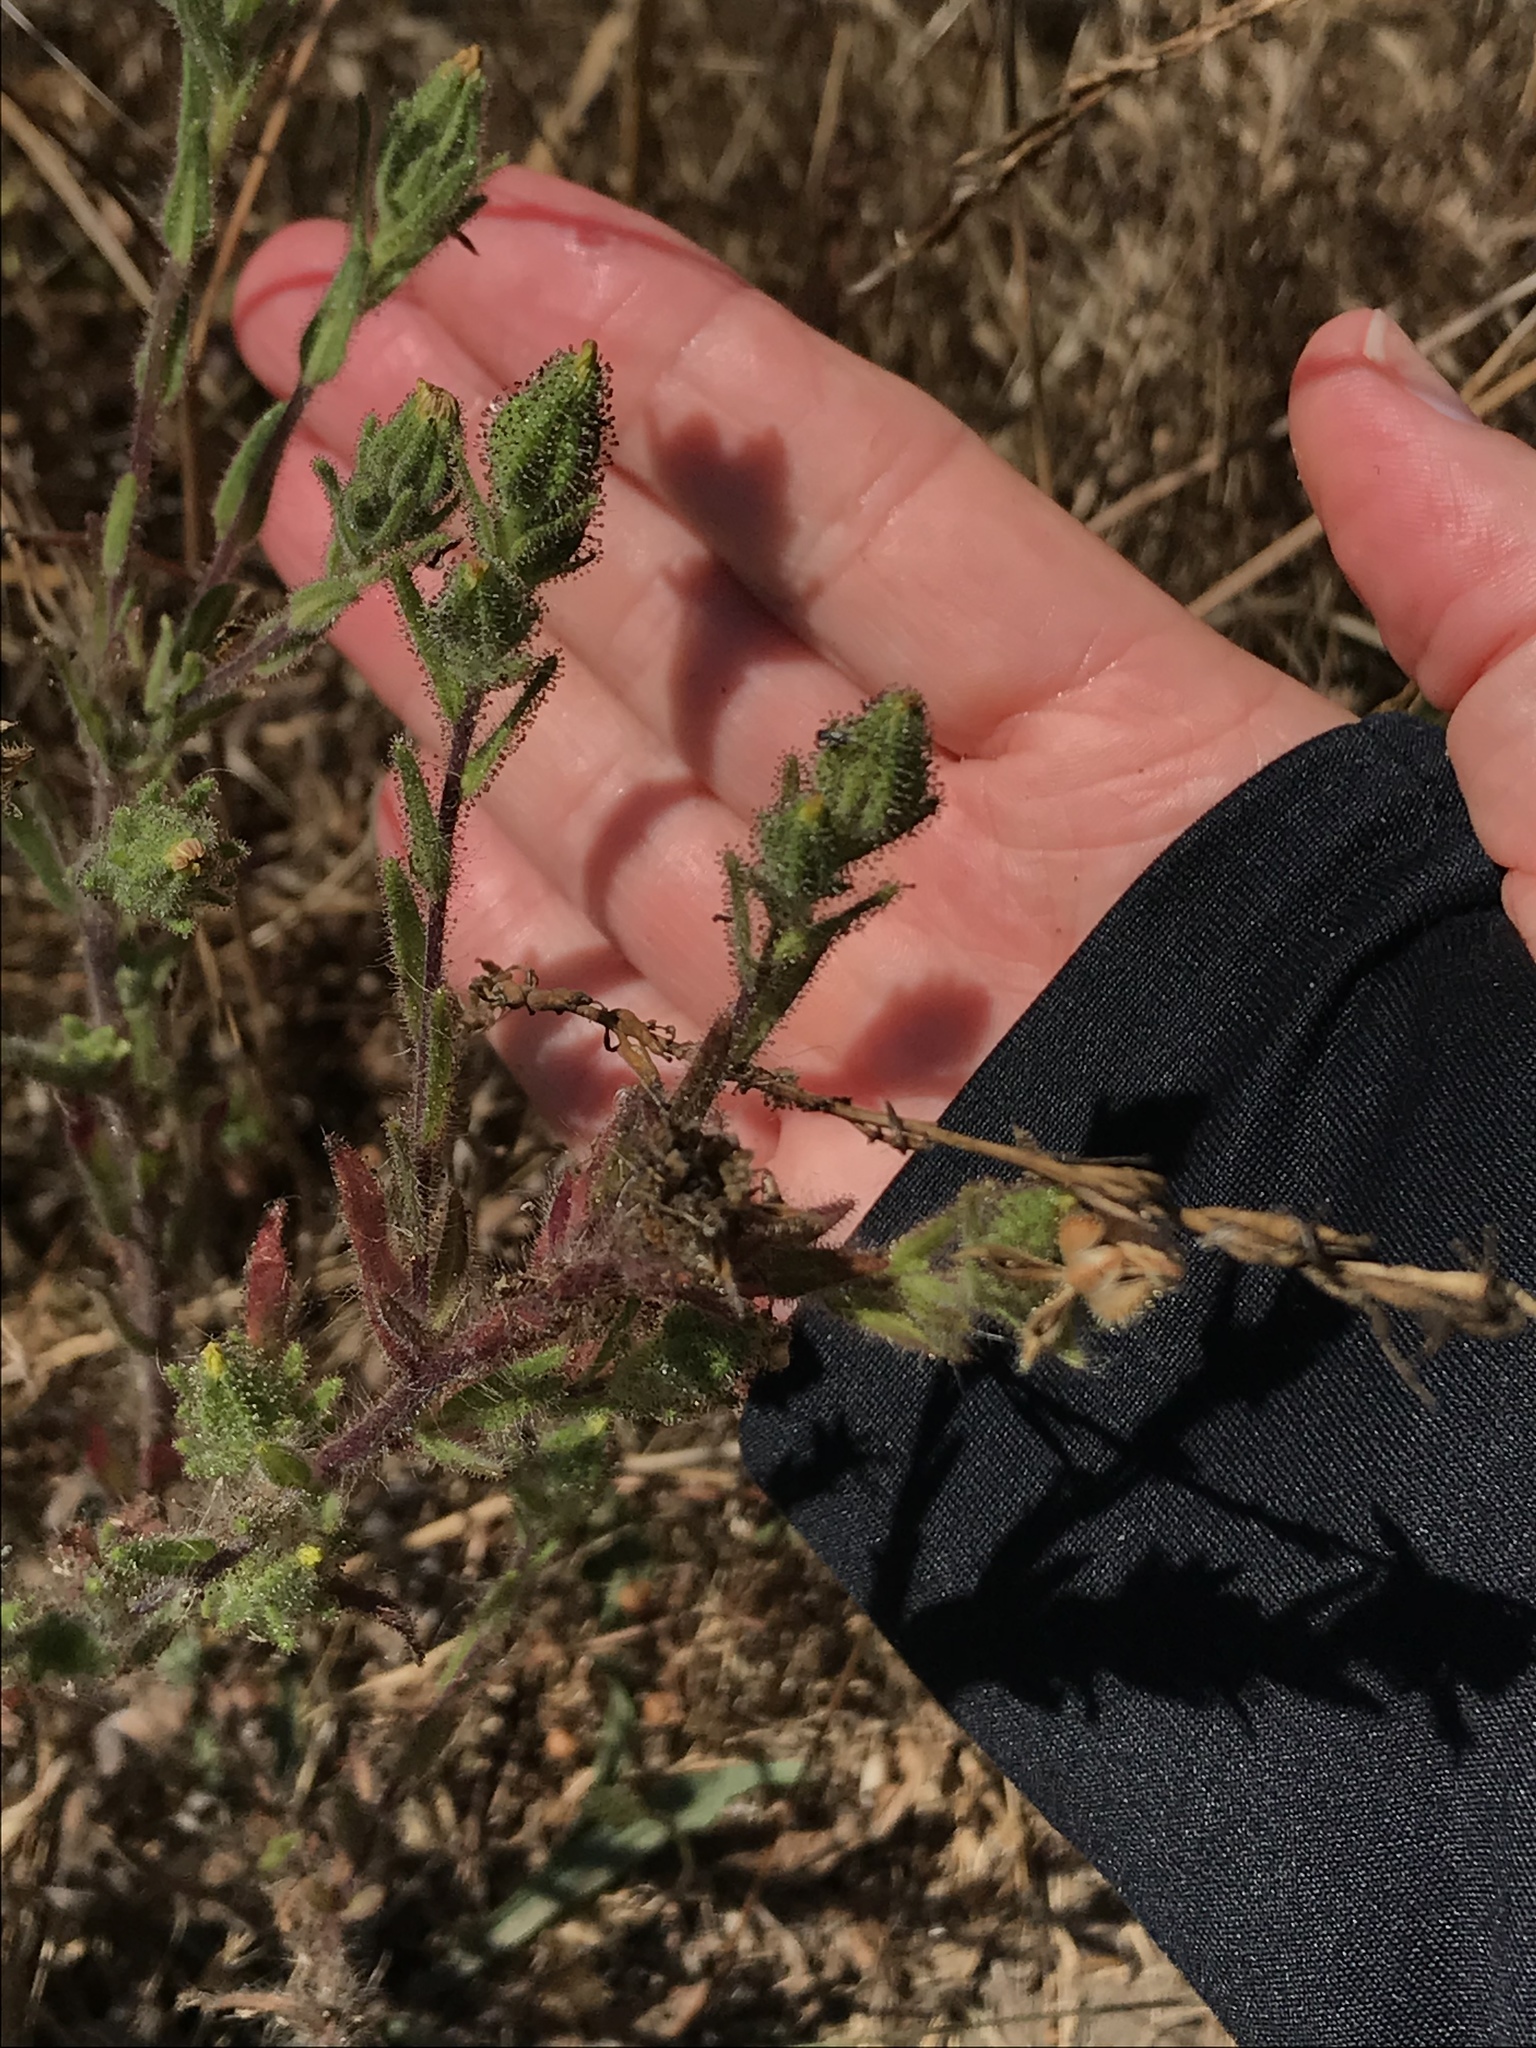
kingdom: Plantae
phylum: Tracheophyta
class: Magnoliopsida
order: Asterales
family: Asteraceae
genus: Madia
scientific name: Madia sativa
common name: Coast tarweed
